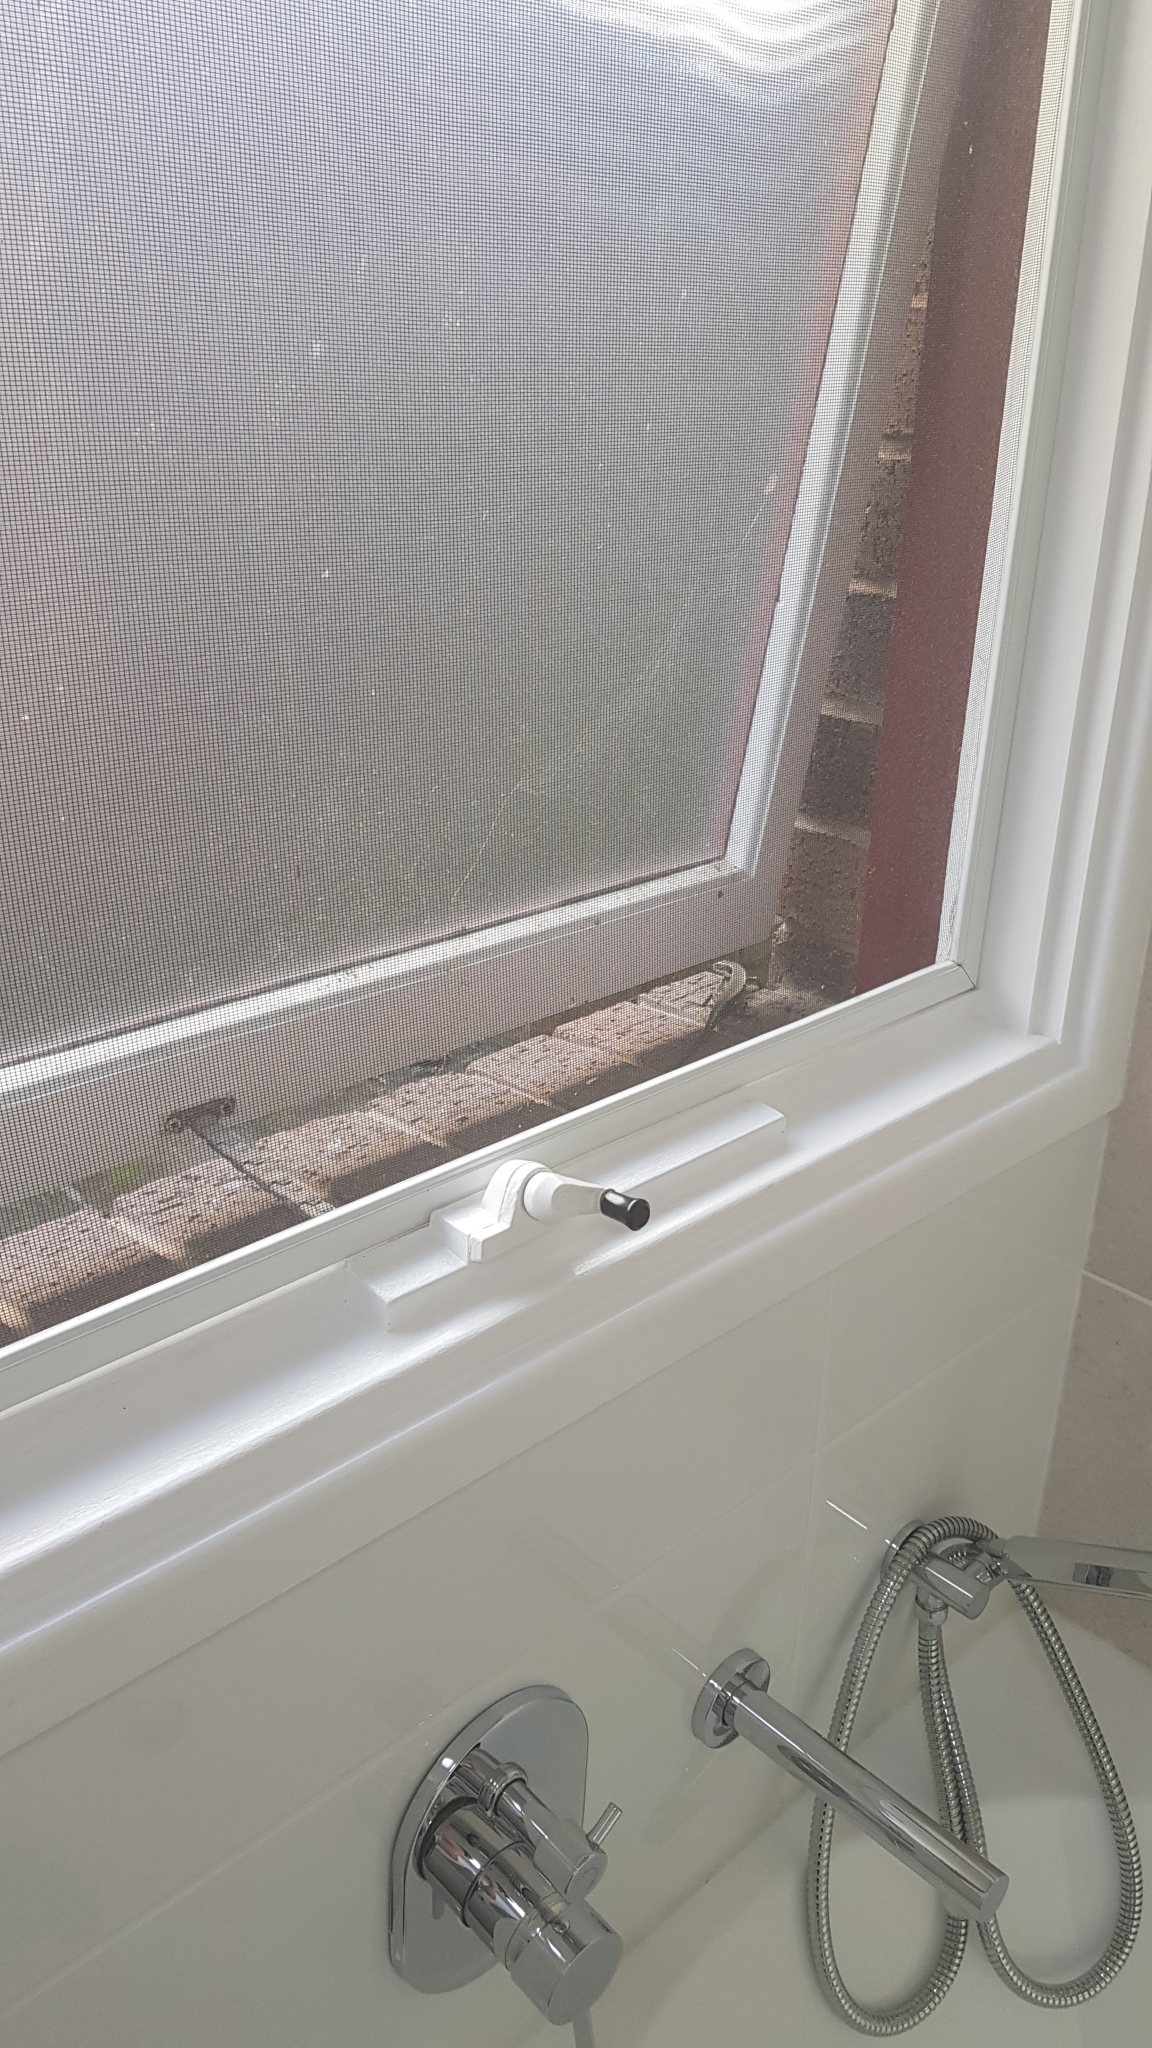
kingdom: Animalia
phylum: Chordata
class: Squamata
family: Scincidae
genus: Eulamprus
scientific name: Eulamprus quoyii
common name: Eastern water skink
